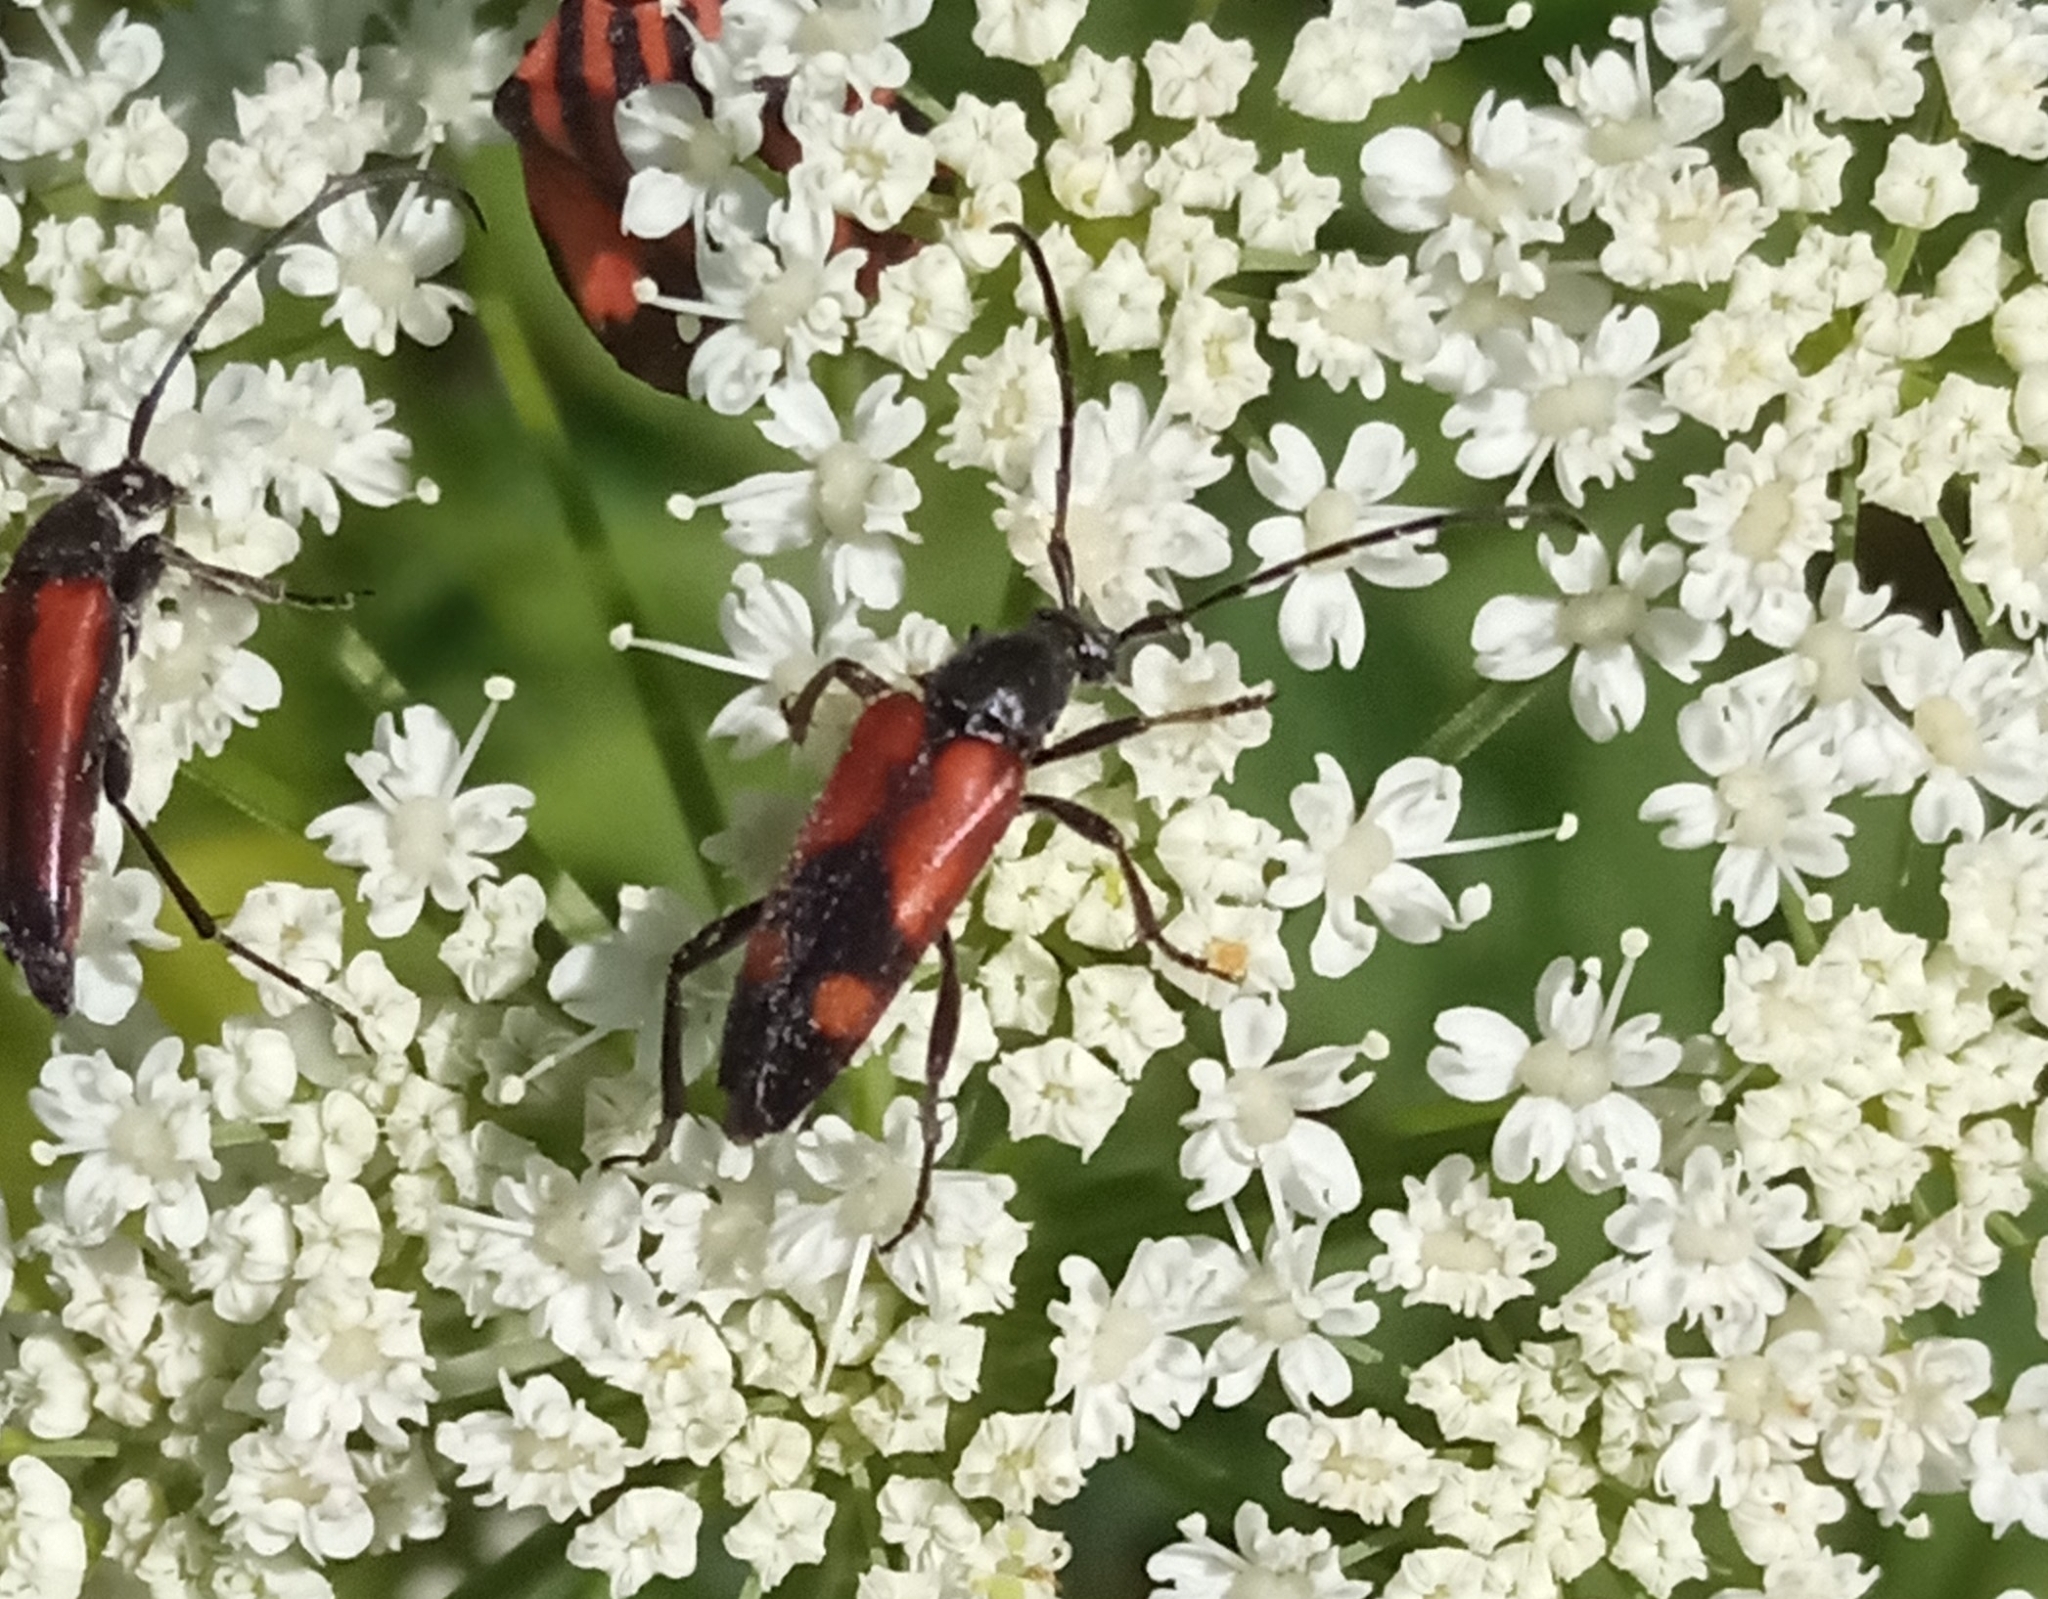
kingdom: Animalia
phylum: Arthropoda
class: Insecta
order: Coleoptera
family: Cerambycidae
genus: Stenurella
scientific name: Stenurella bifasciata
